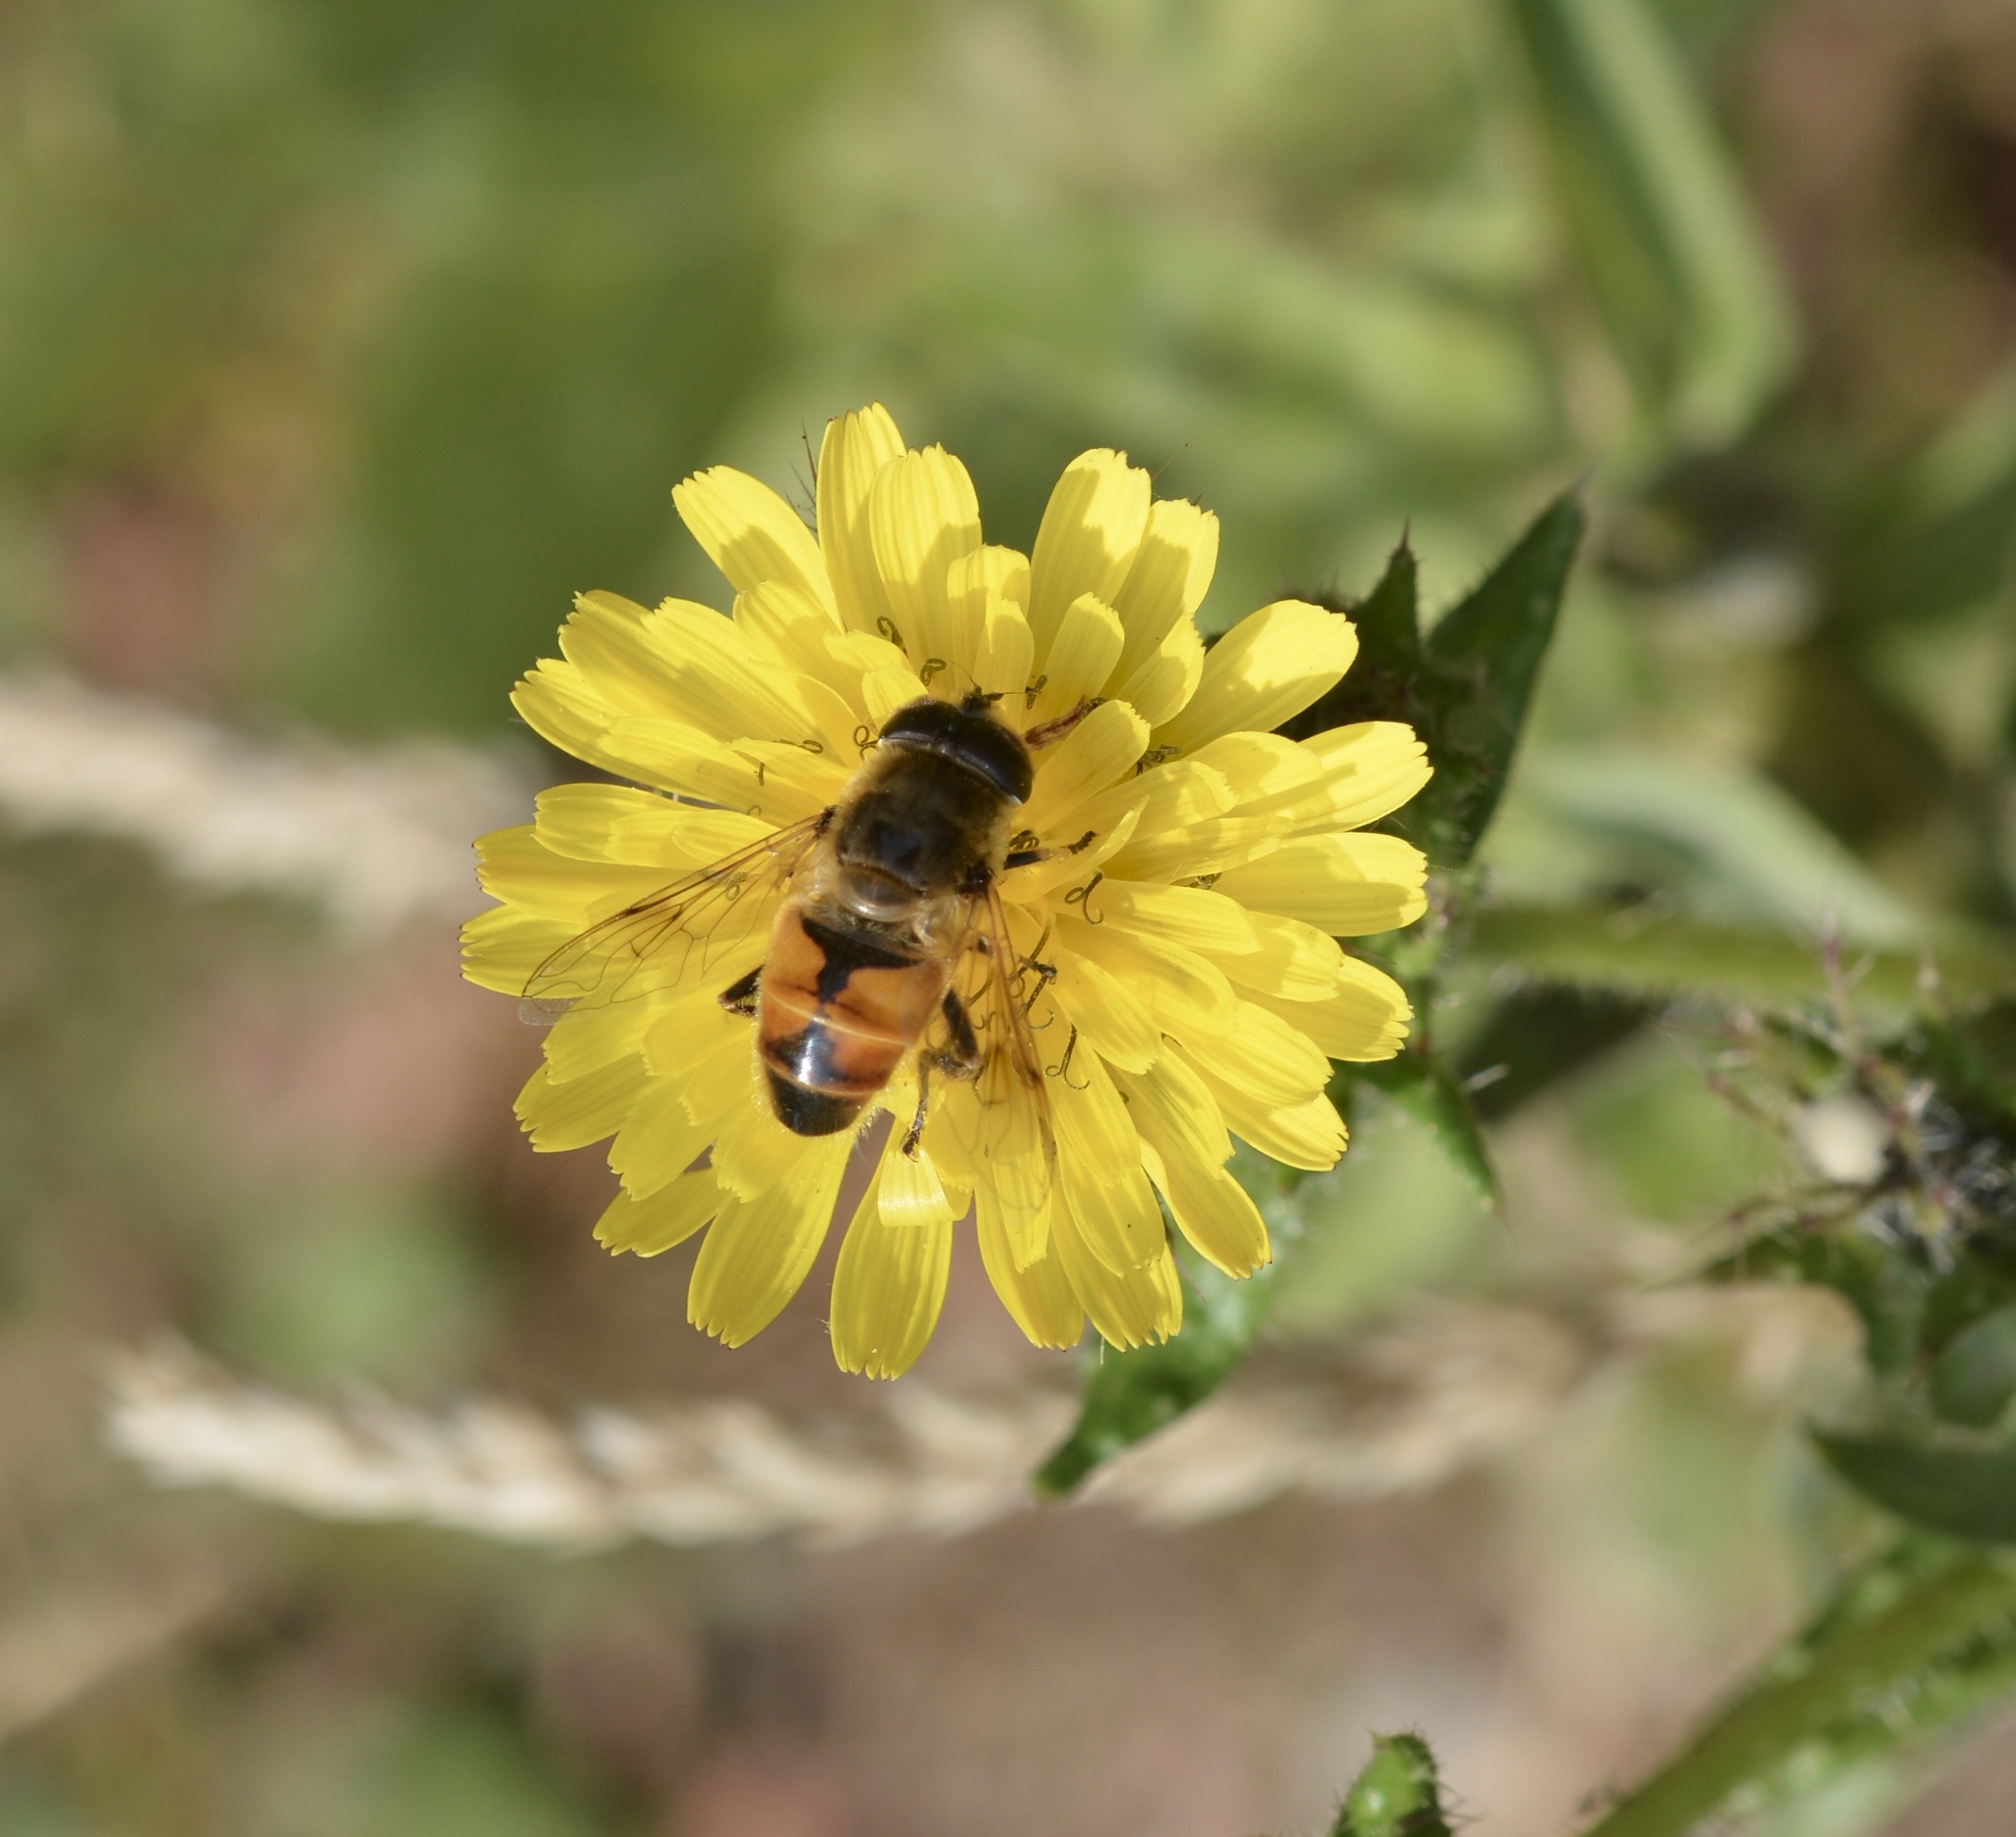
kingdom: Animalia
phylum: Arthropoda
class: Insecta
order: Diptera
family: Syrphidae
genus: Eristalis
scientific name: Eristalis tenax
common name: Drone fly
